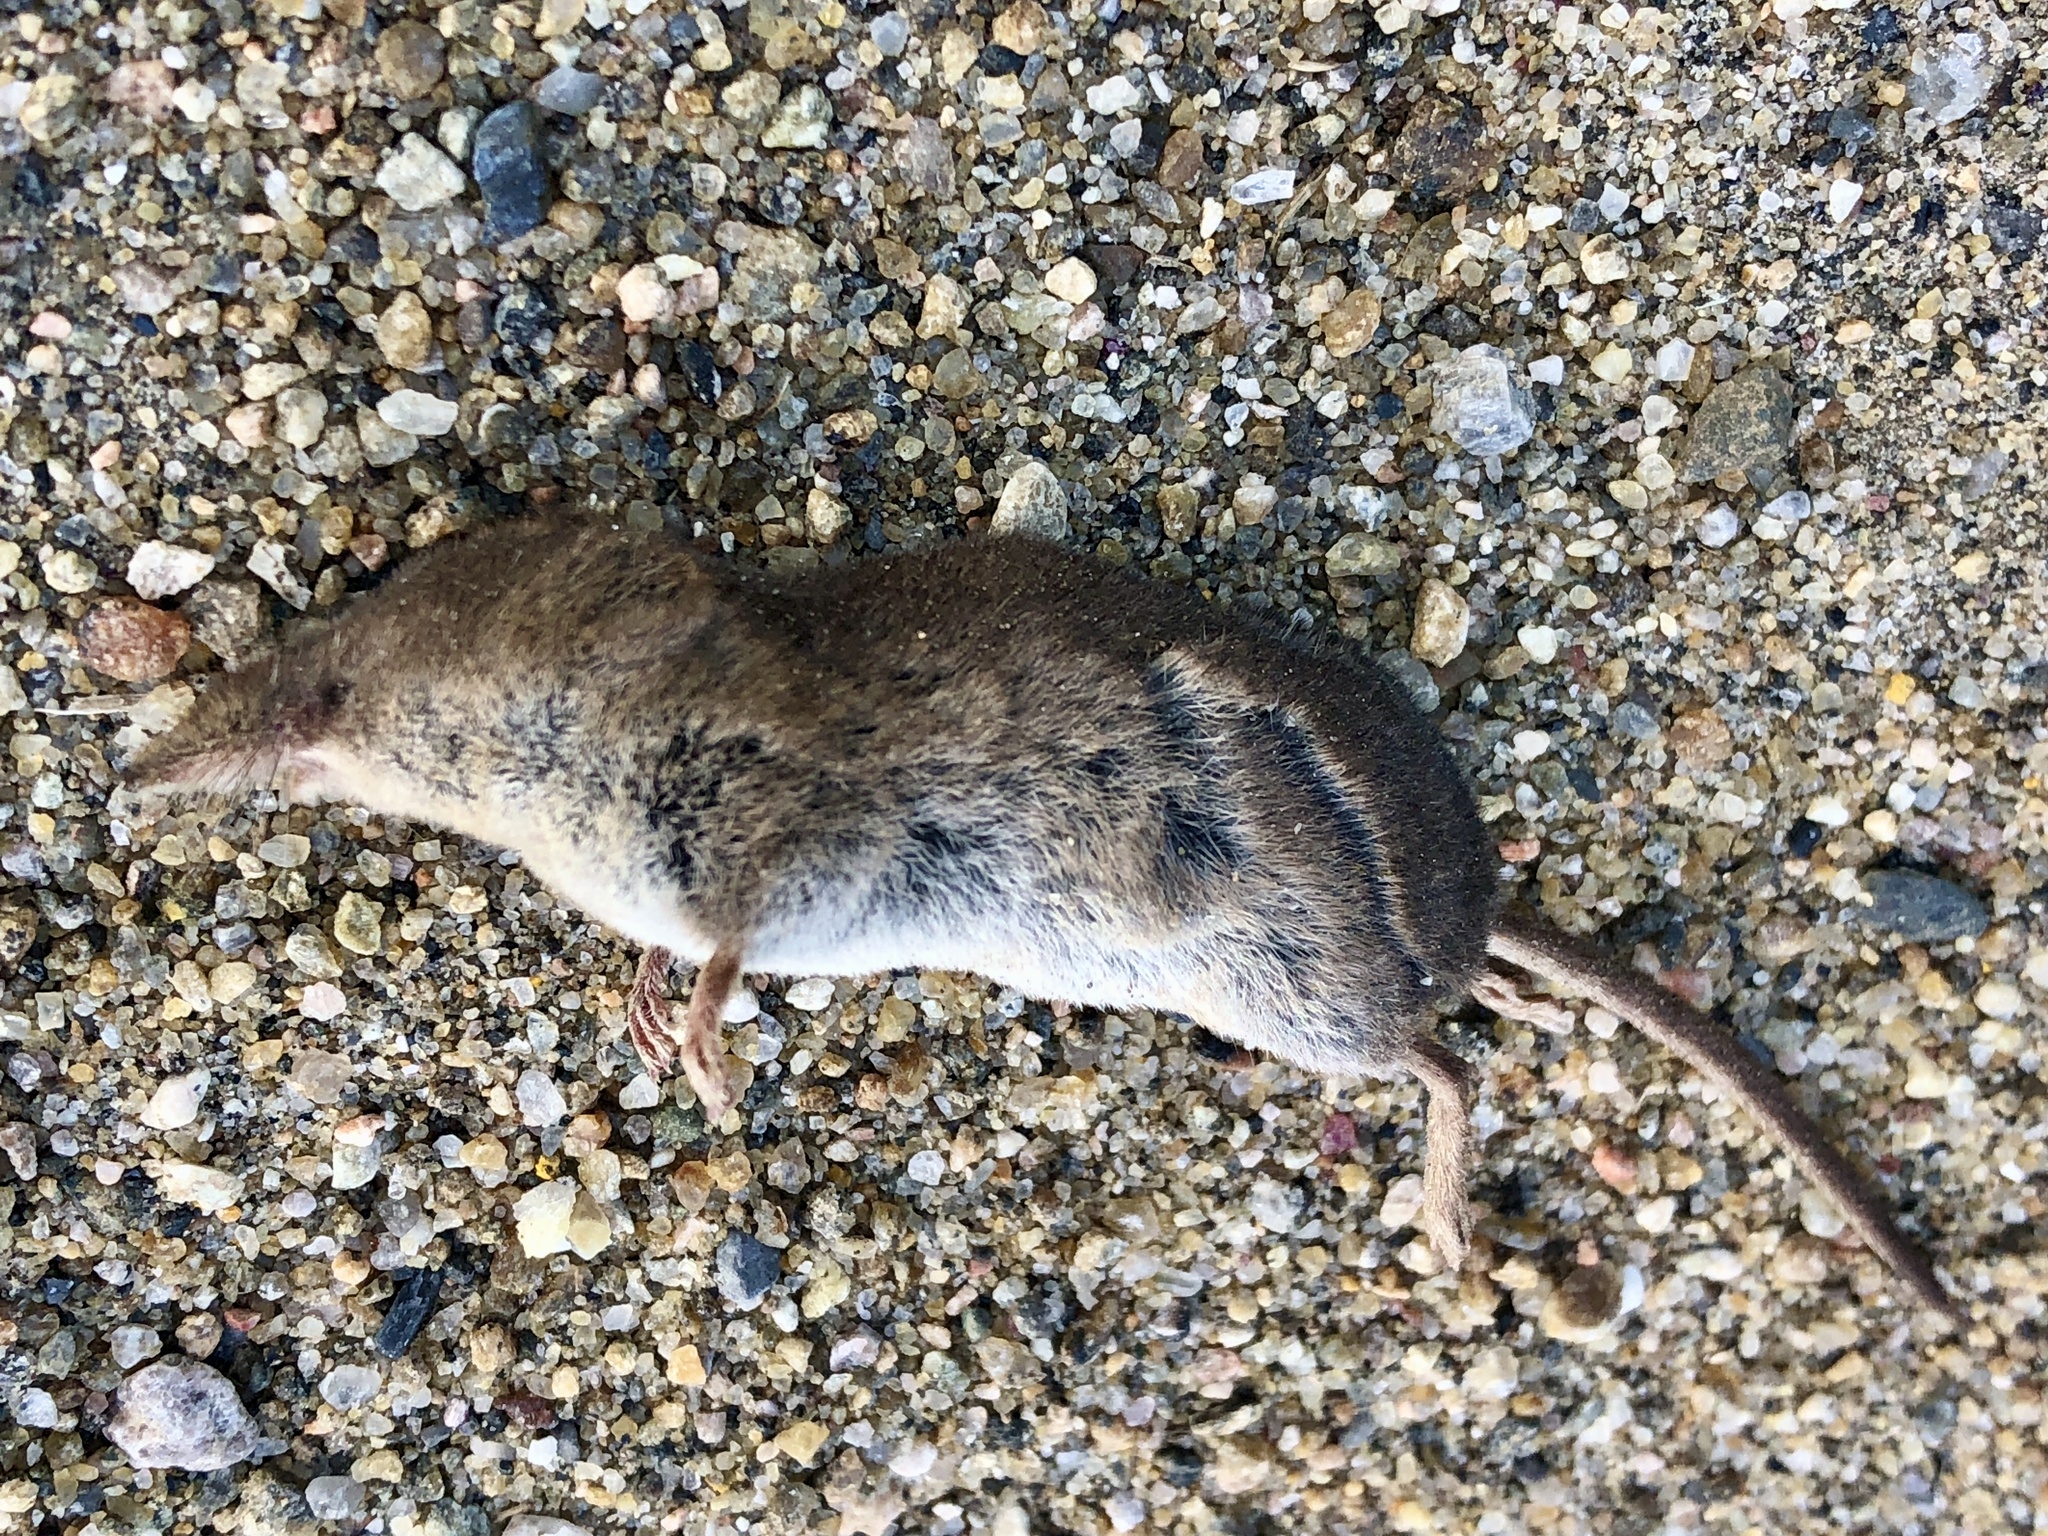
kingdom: Animalia
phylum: Chordata
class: Mammalia
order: Soricomorpha
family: Soricidae
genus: Sorex
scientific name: Sorex cinereus
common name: Cinereus shrew
